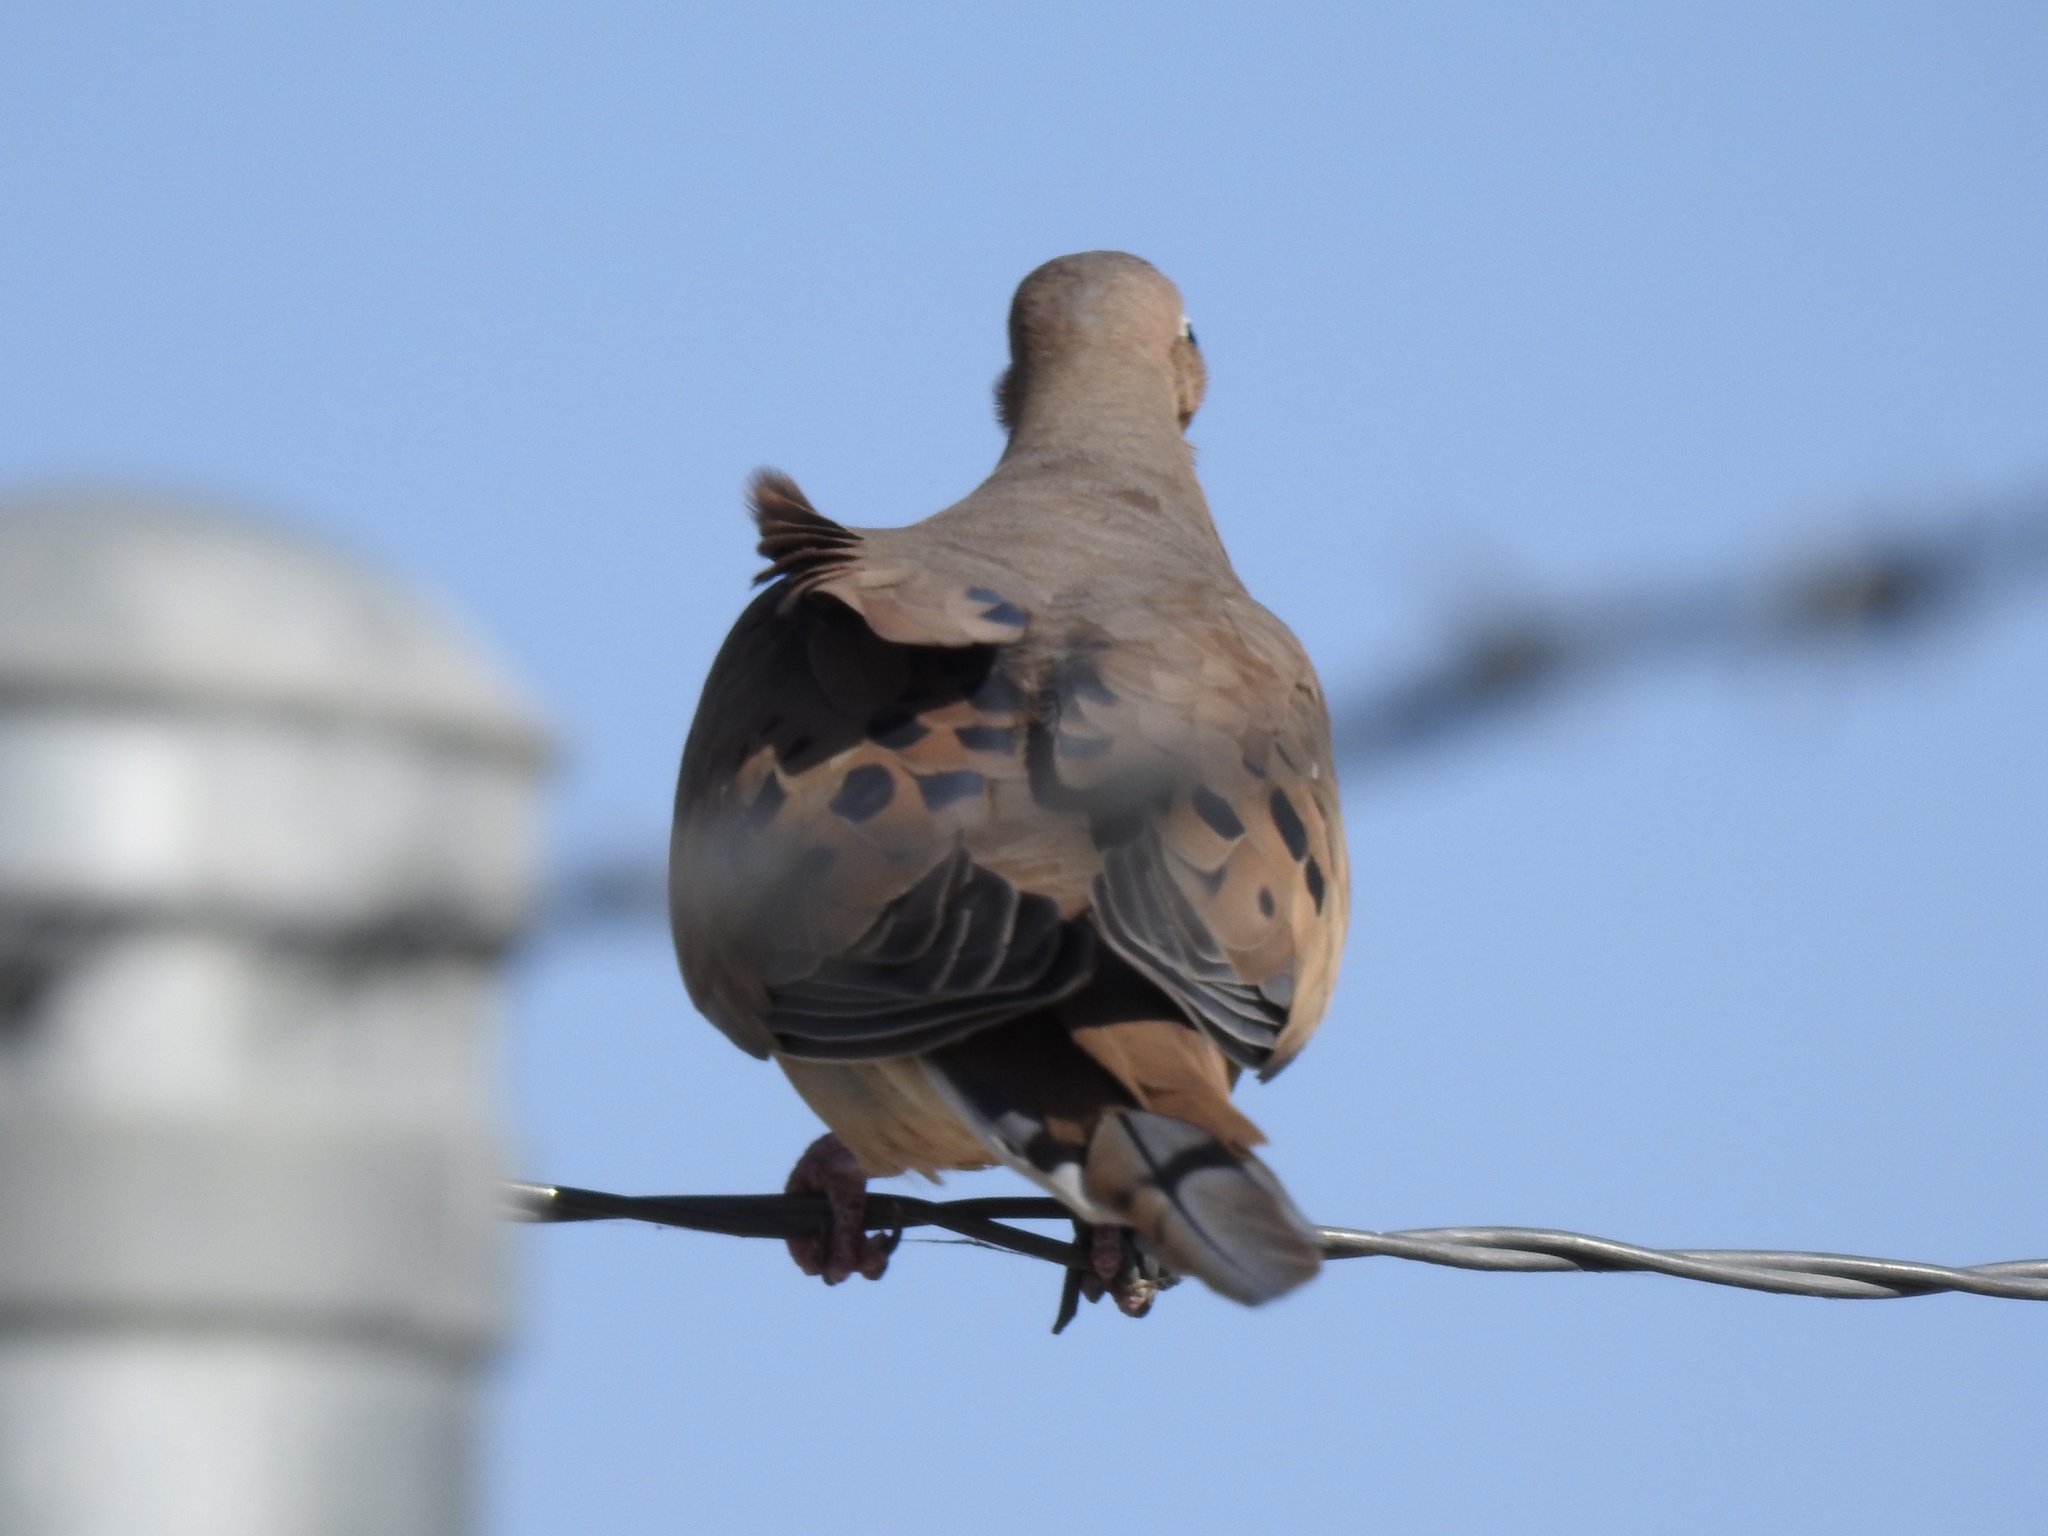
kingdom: Animalia
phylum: Chordata
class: Aves
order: Columbiformes
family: Columbidae
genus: Zenaida
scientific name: Zenaida macroura
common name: Mourning dove
